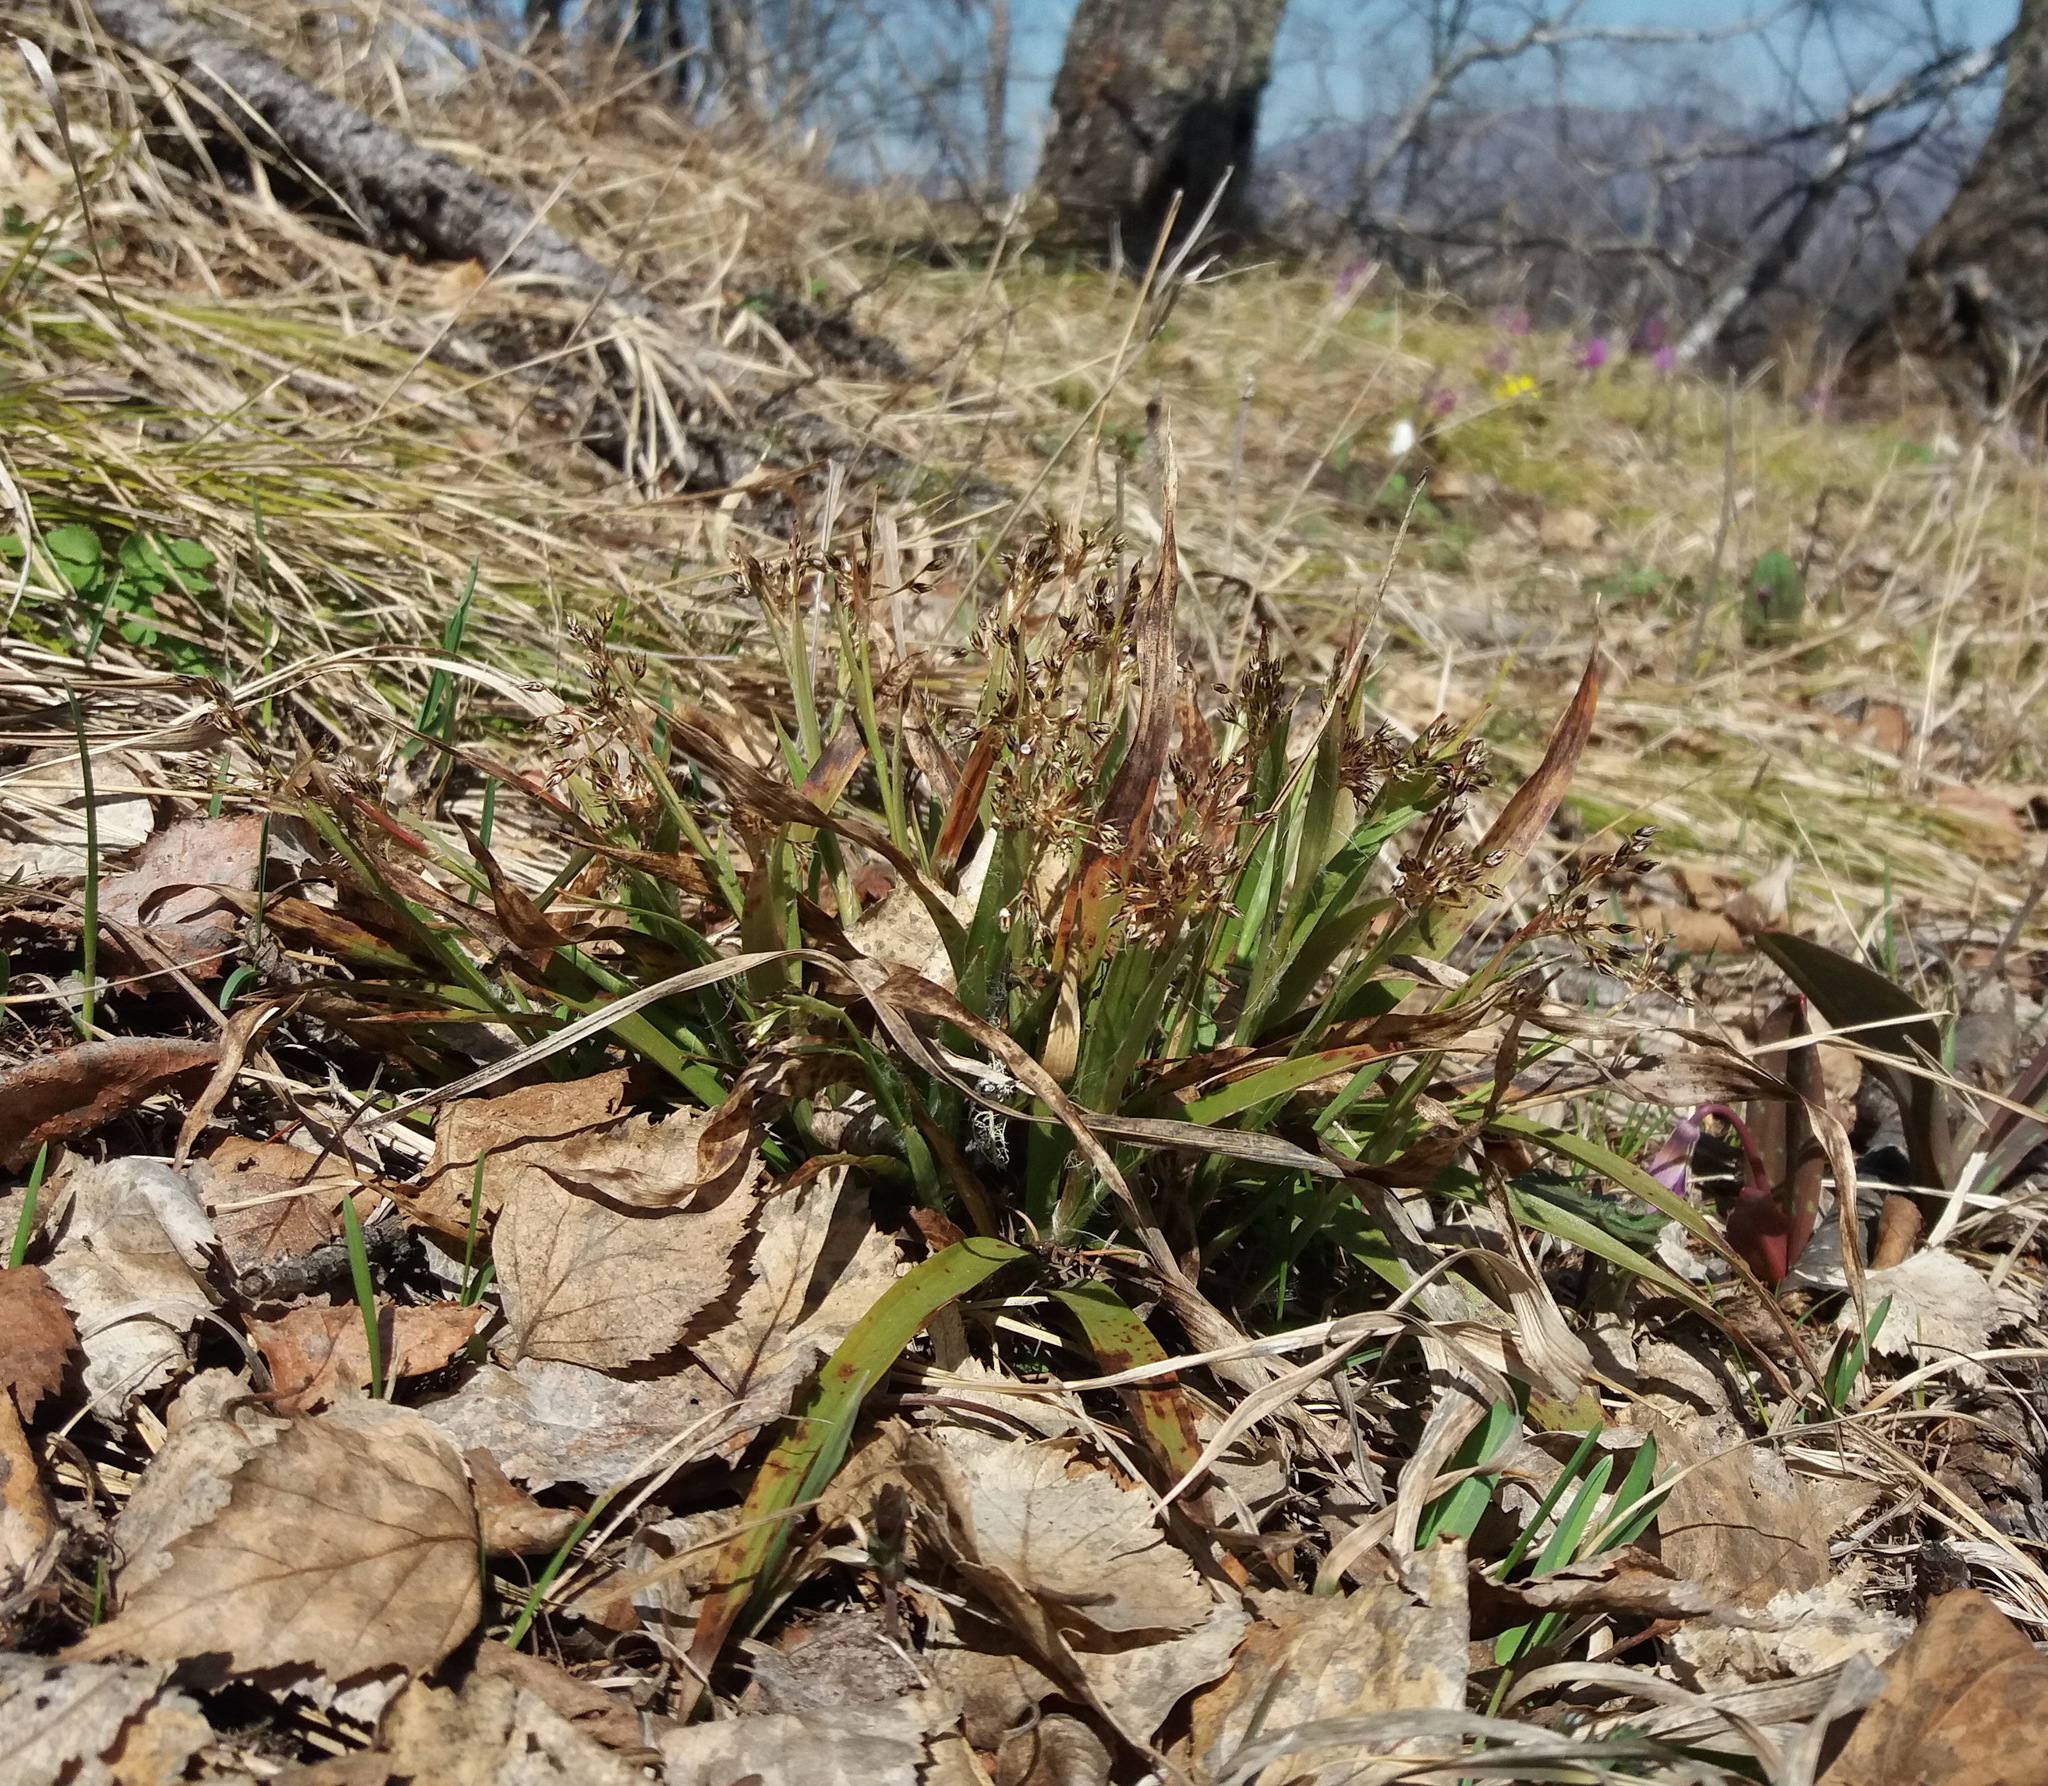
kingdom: Plantae
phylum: Tracheophyta
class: Liliopsida
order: Poales
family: Juncaceae
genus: Luzula
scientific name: Luzula pilosa
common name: Hairy wood-rush
